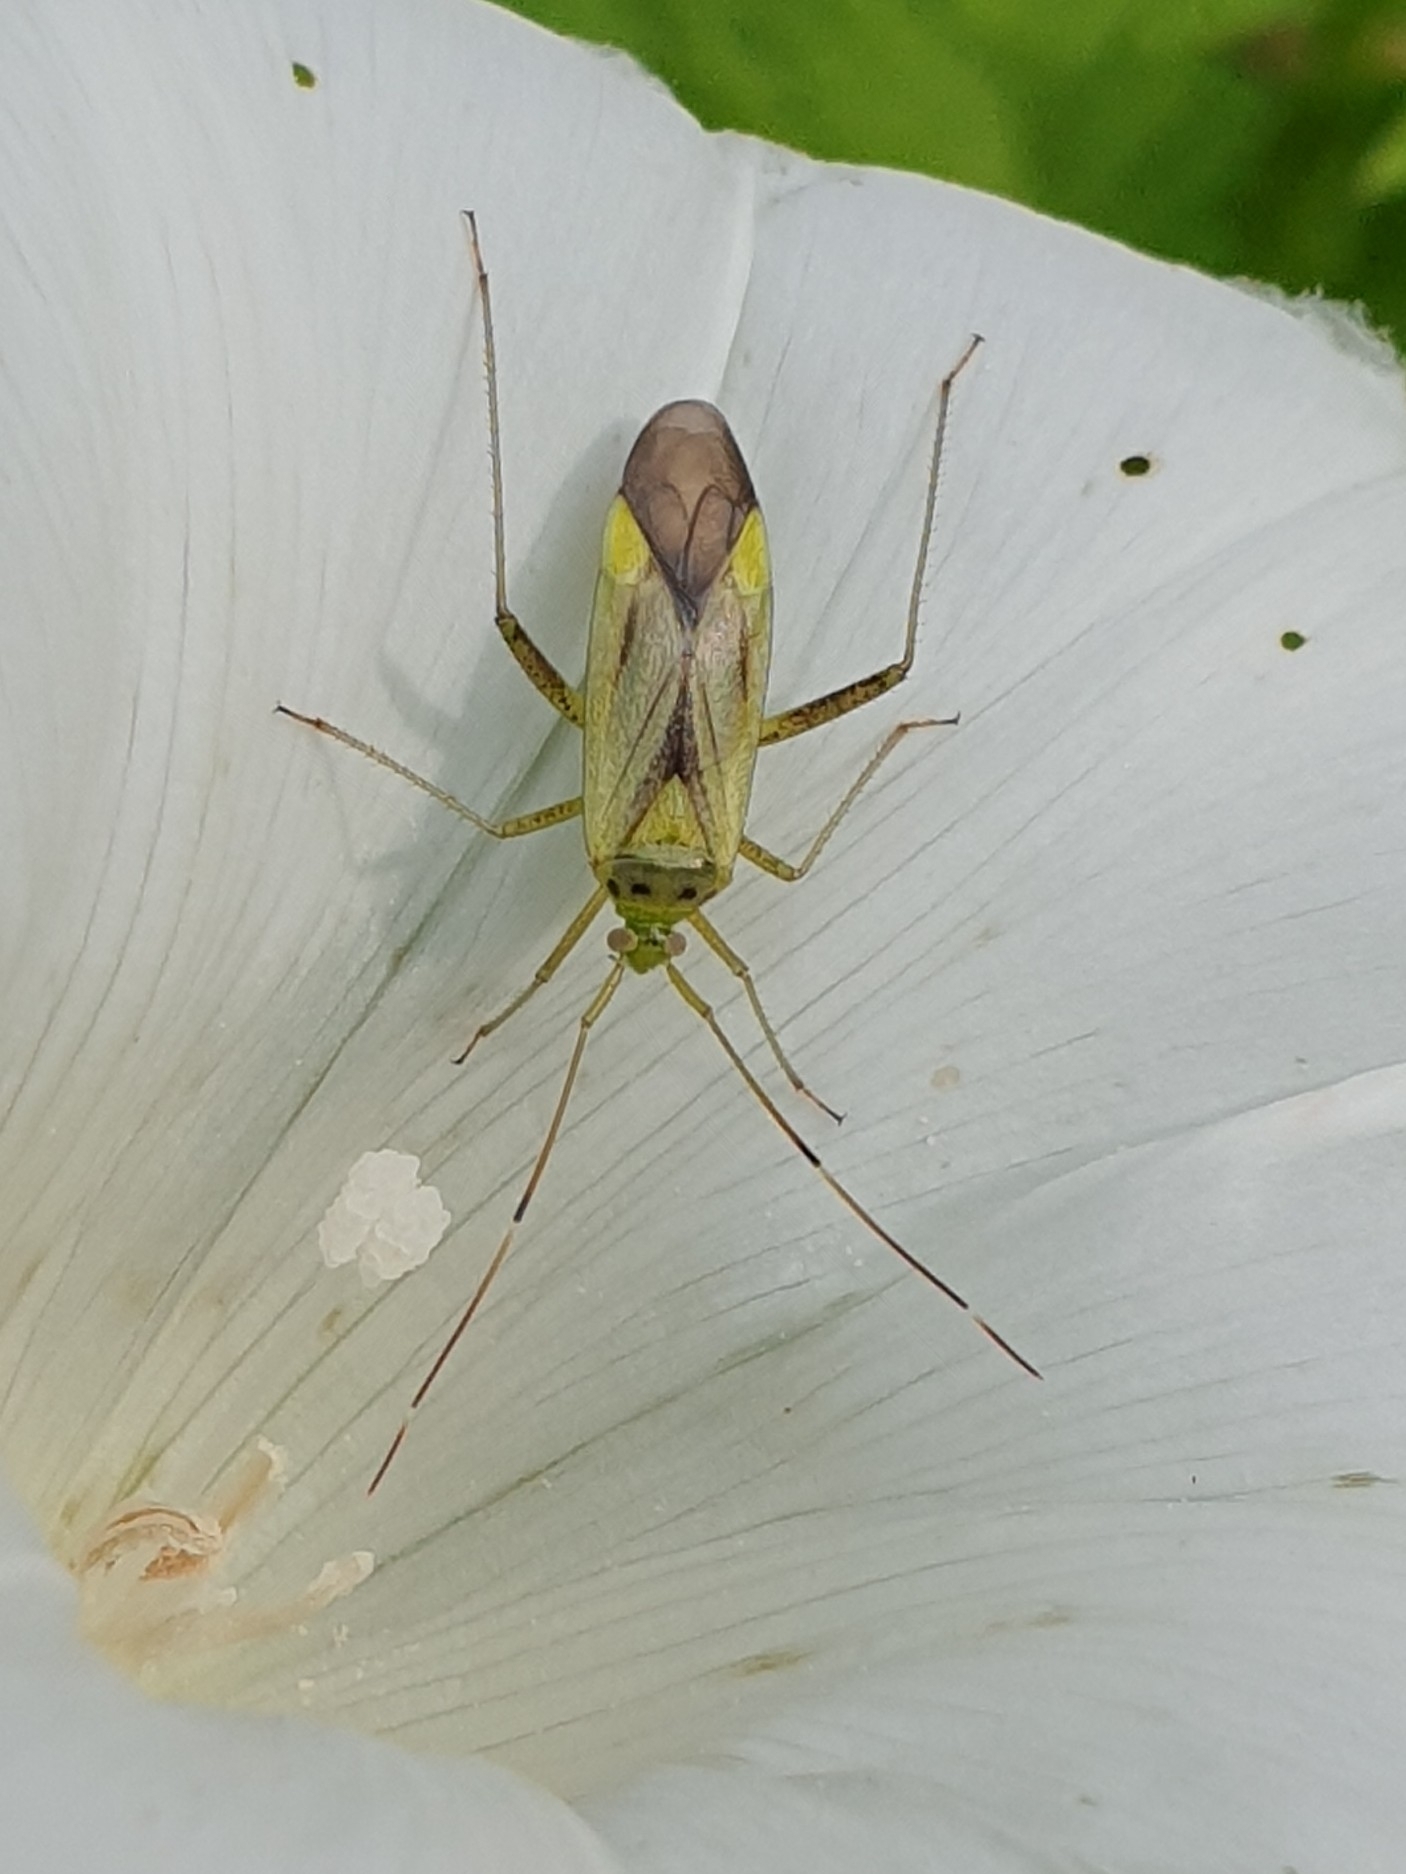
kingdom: Animalia
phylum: Arthropoda
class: Insecta
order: Hemiptera
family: Miridae
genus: Adelphocoris
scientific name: Adelphocoris quadripunctatus
